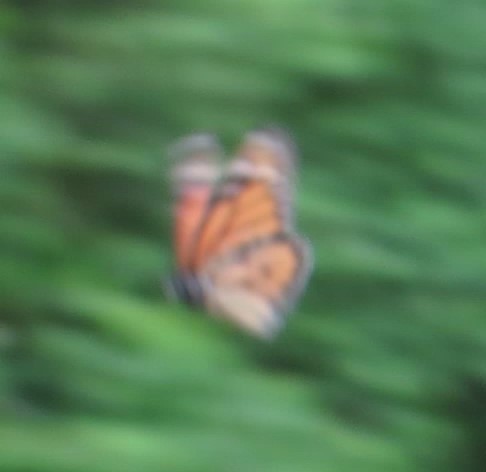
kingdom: Animalia
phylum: Arthropoda
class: Insecta
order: Lepidoptera
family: Nymphalidae
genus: Danaus
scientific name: Danaus plexippus
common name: Monarch
